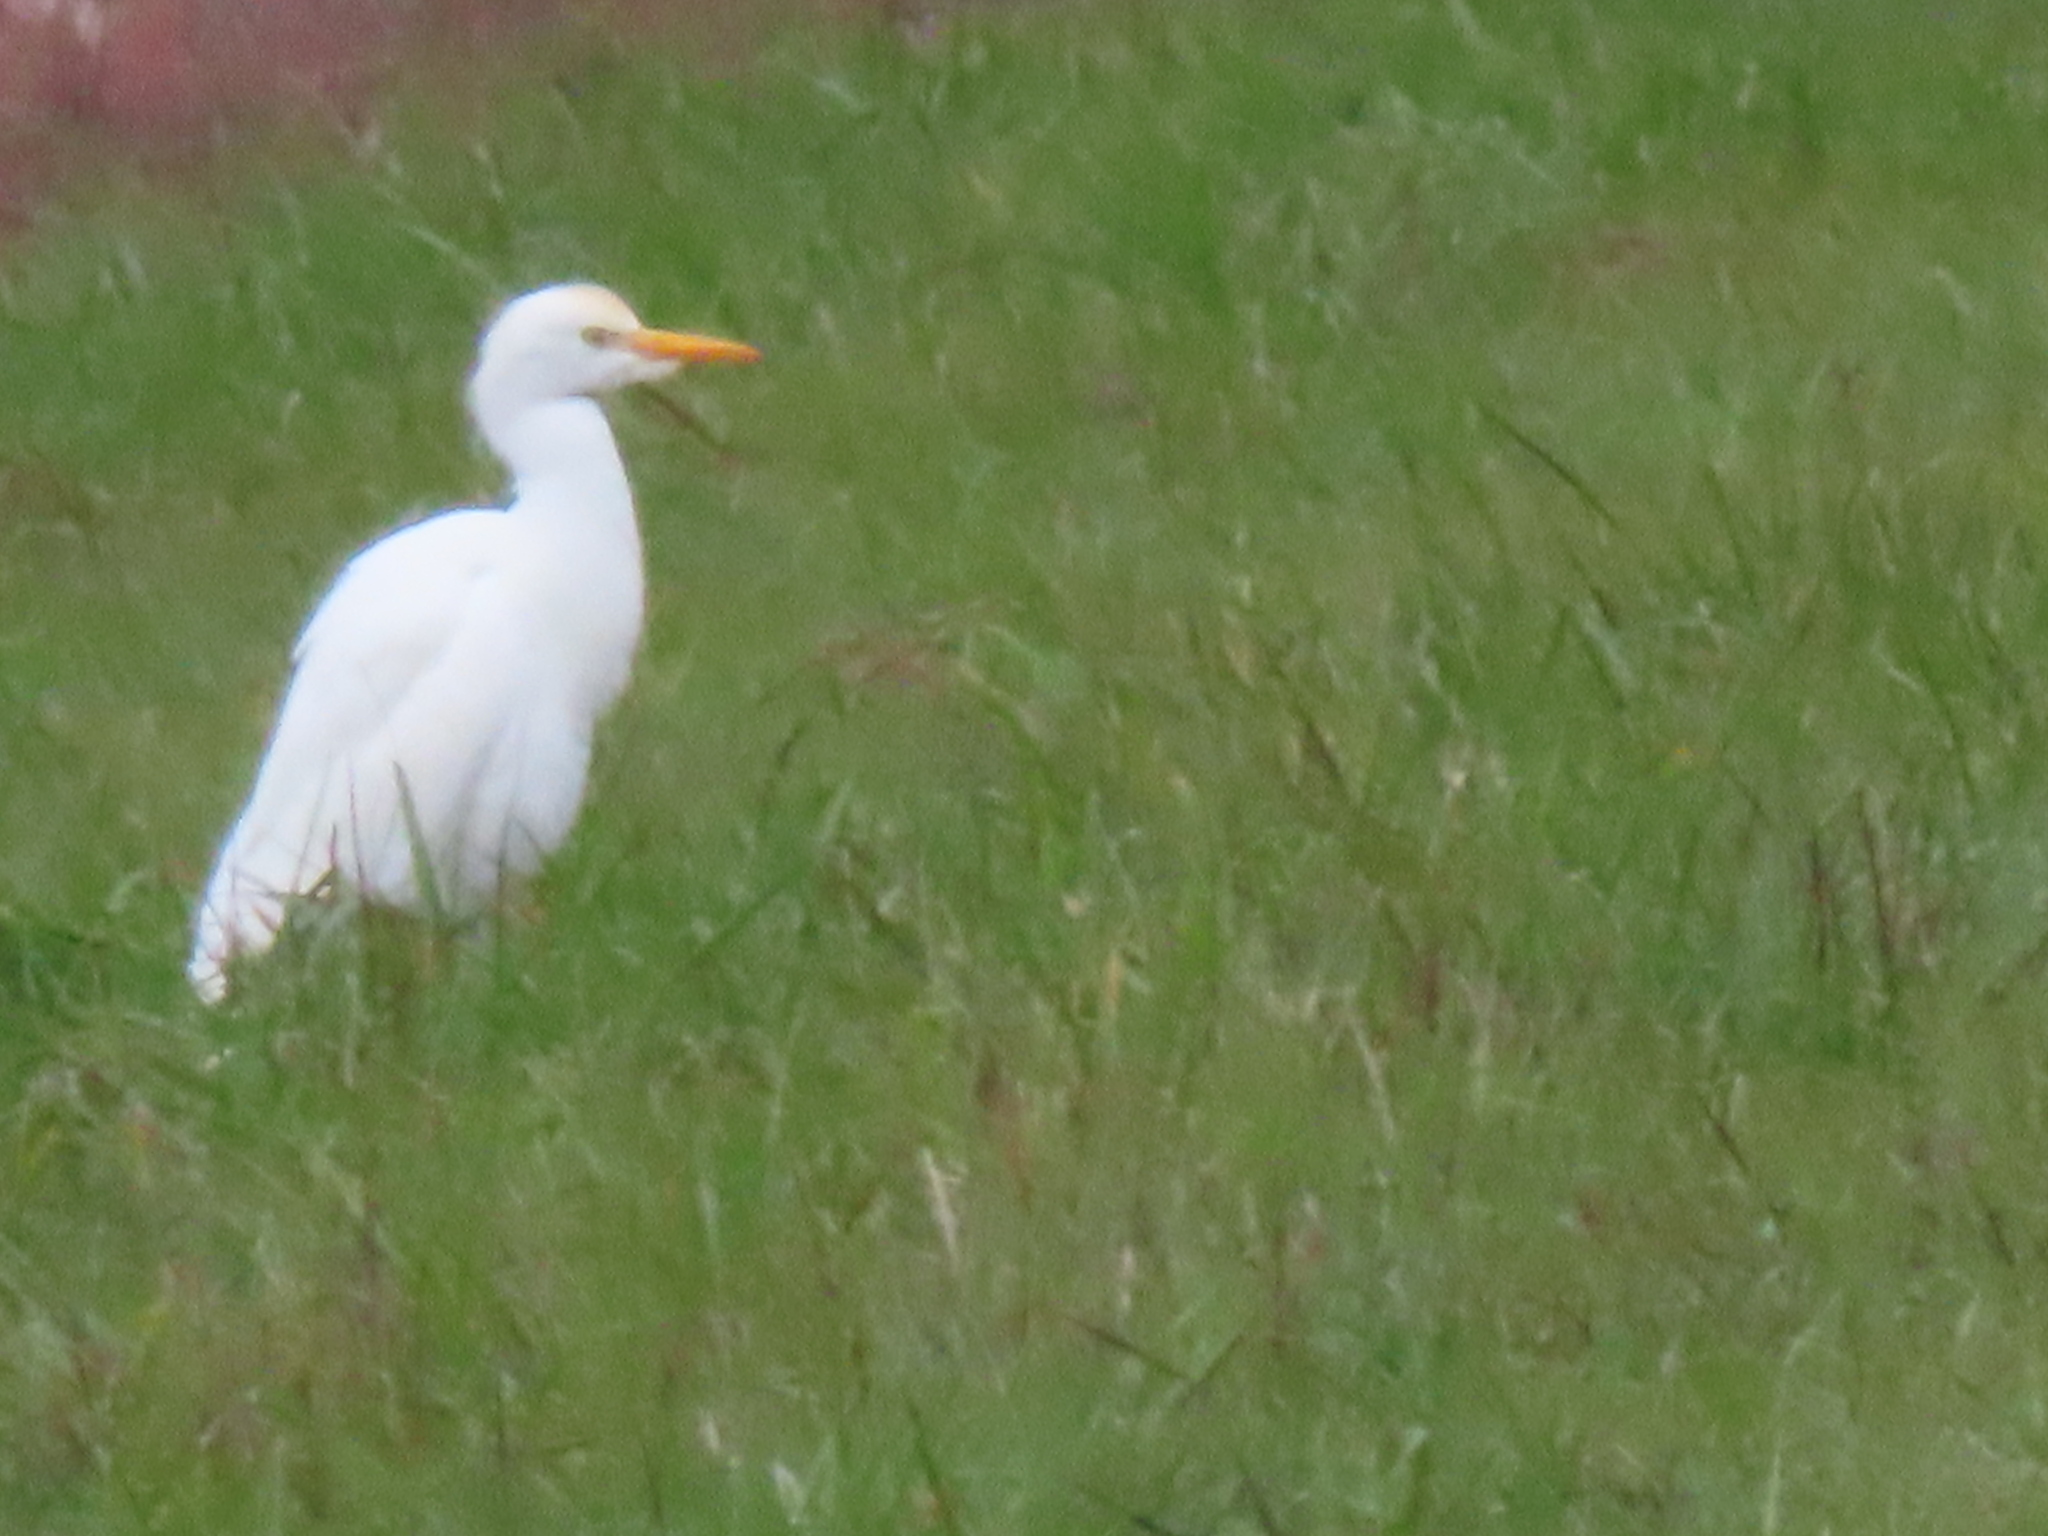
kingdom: Animalia
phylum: Chordata
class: Aves
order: Pelecaniformes
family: Ardeidae
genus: Bubulcus
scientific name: Bubulcus ibis
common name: Cattle egret
